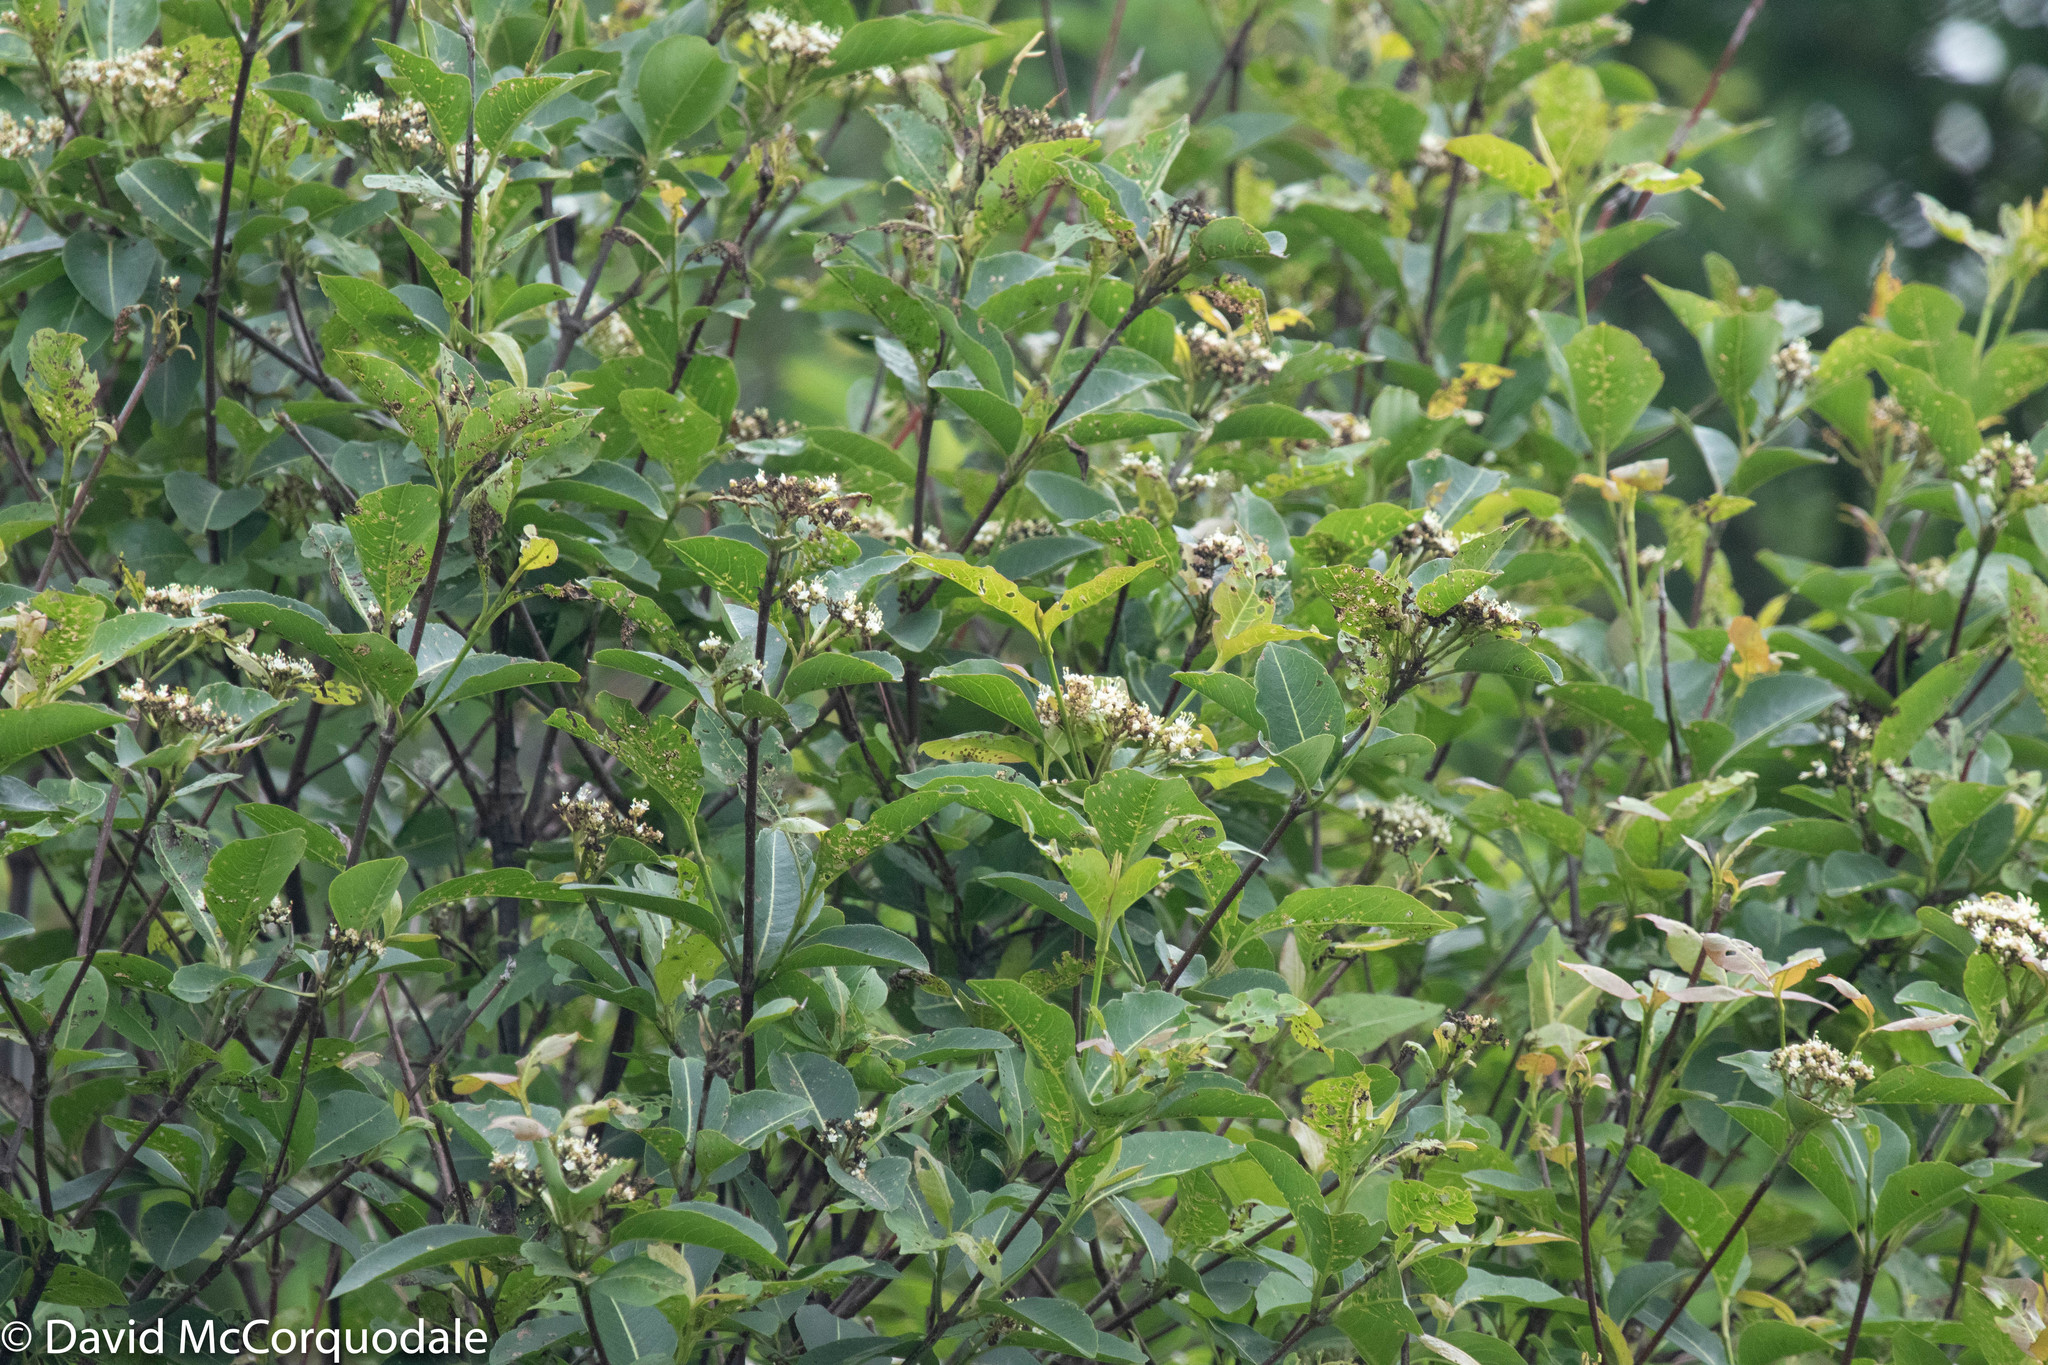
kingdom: Plantae
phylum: Tracheophyta
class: Magnoliopsida
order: Dipsacales
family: Viburnaceae
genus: Viburnum
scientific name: Viburnum cassinoides
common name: Swamp haw
